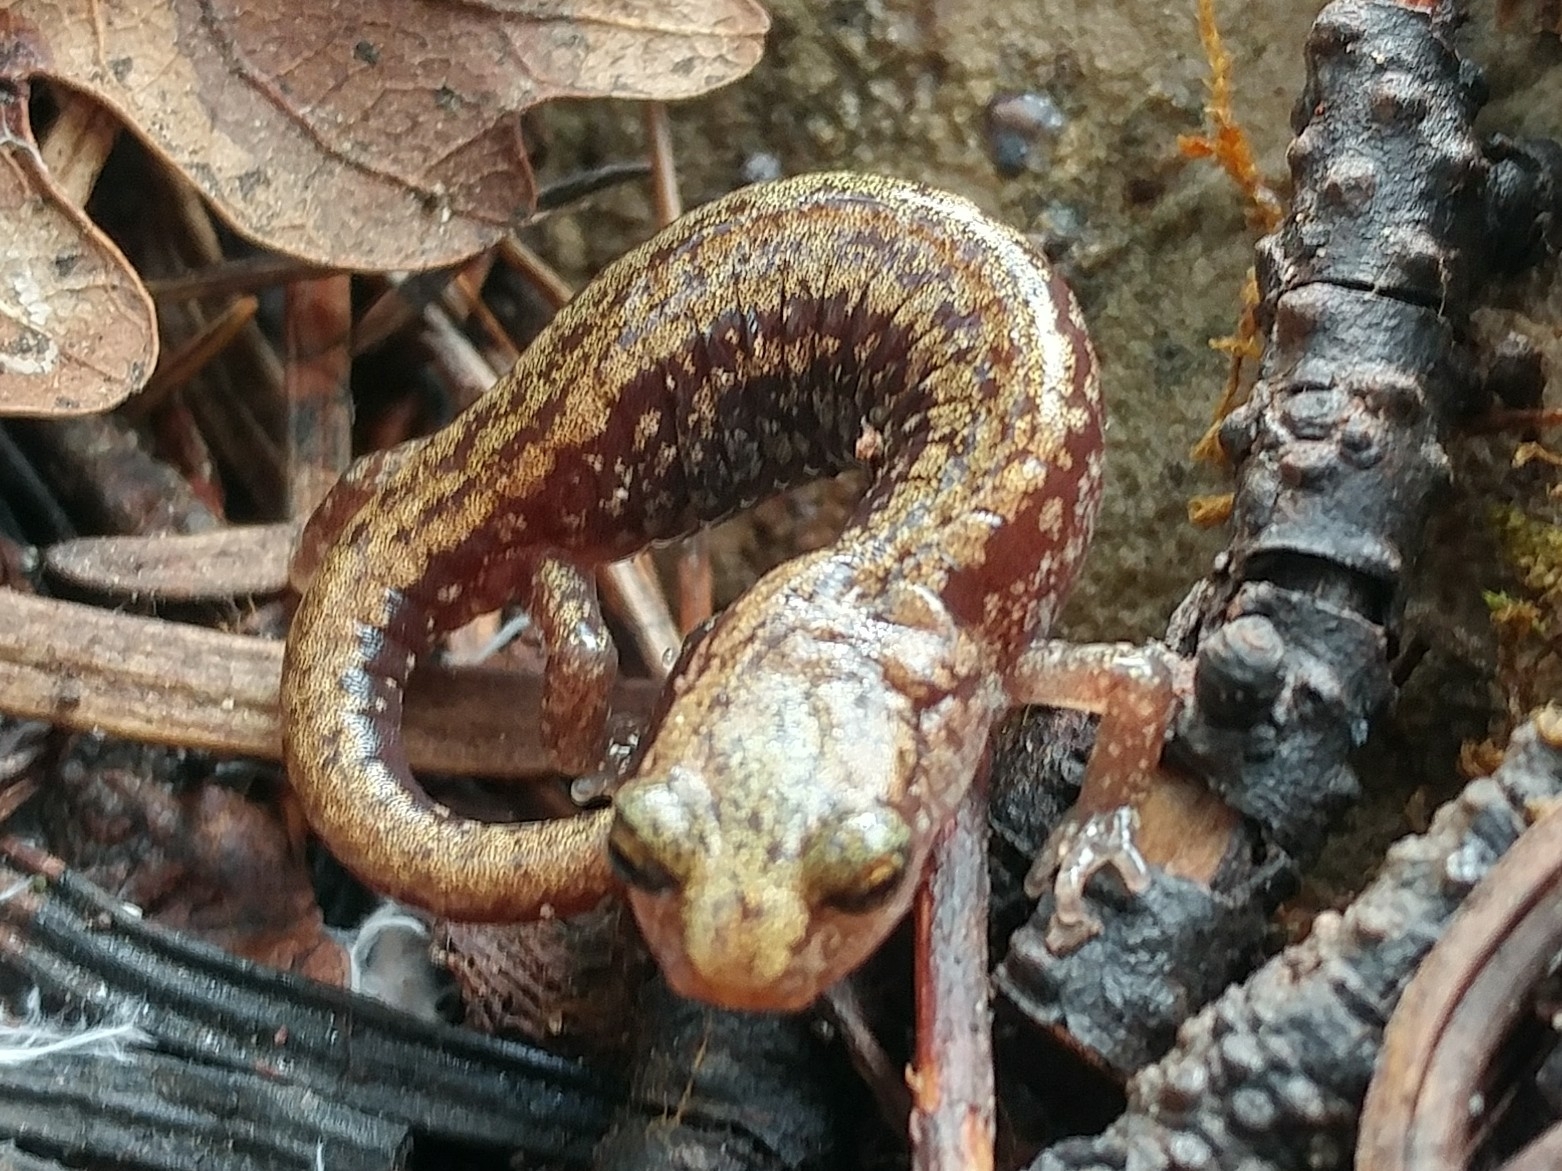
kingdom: Animalia
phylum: Chordata
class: Amphibia
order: Caudata
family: Plethodontidae
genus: Aneides
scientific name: Aneides hardii
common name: Sacramento mountain salamander
